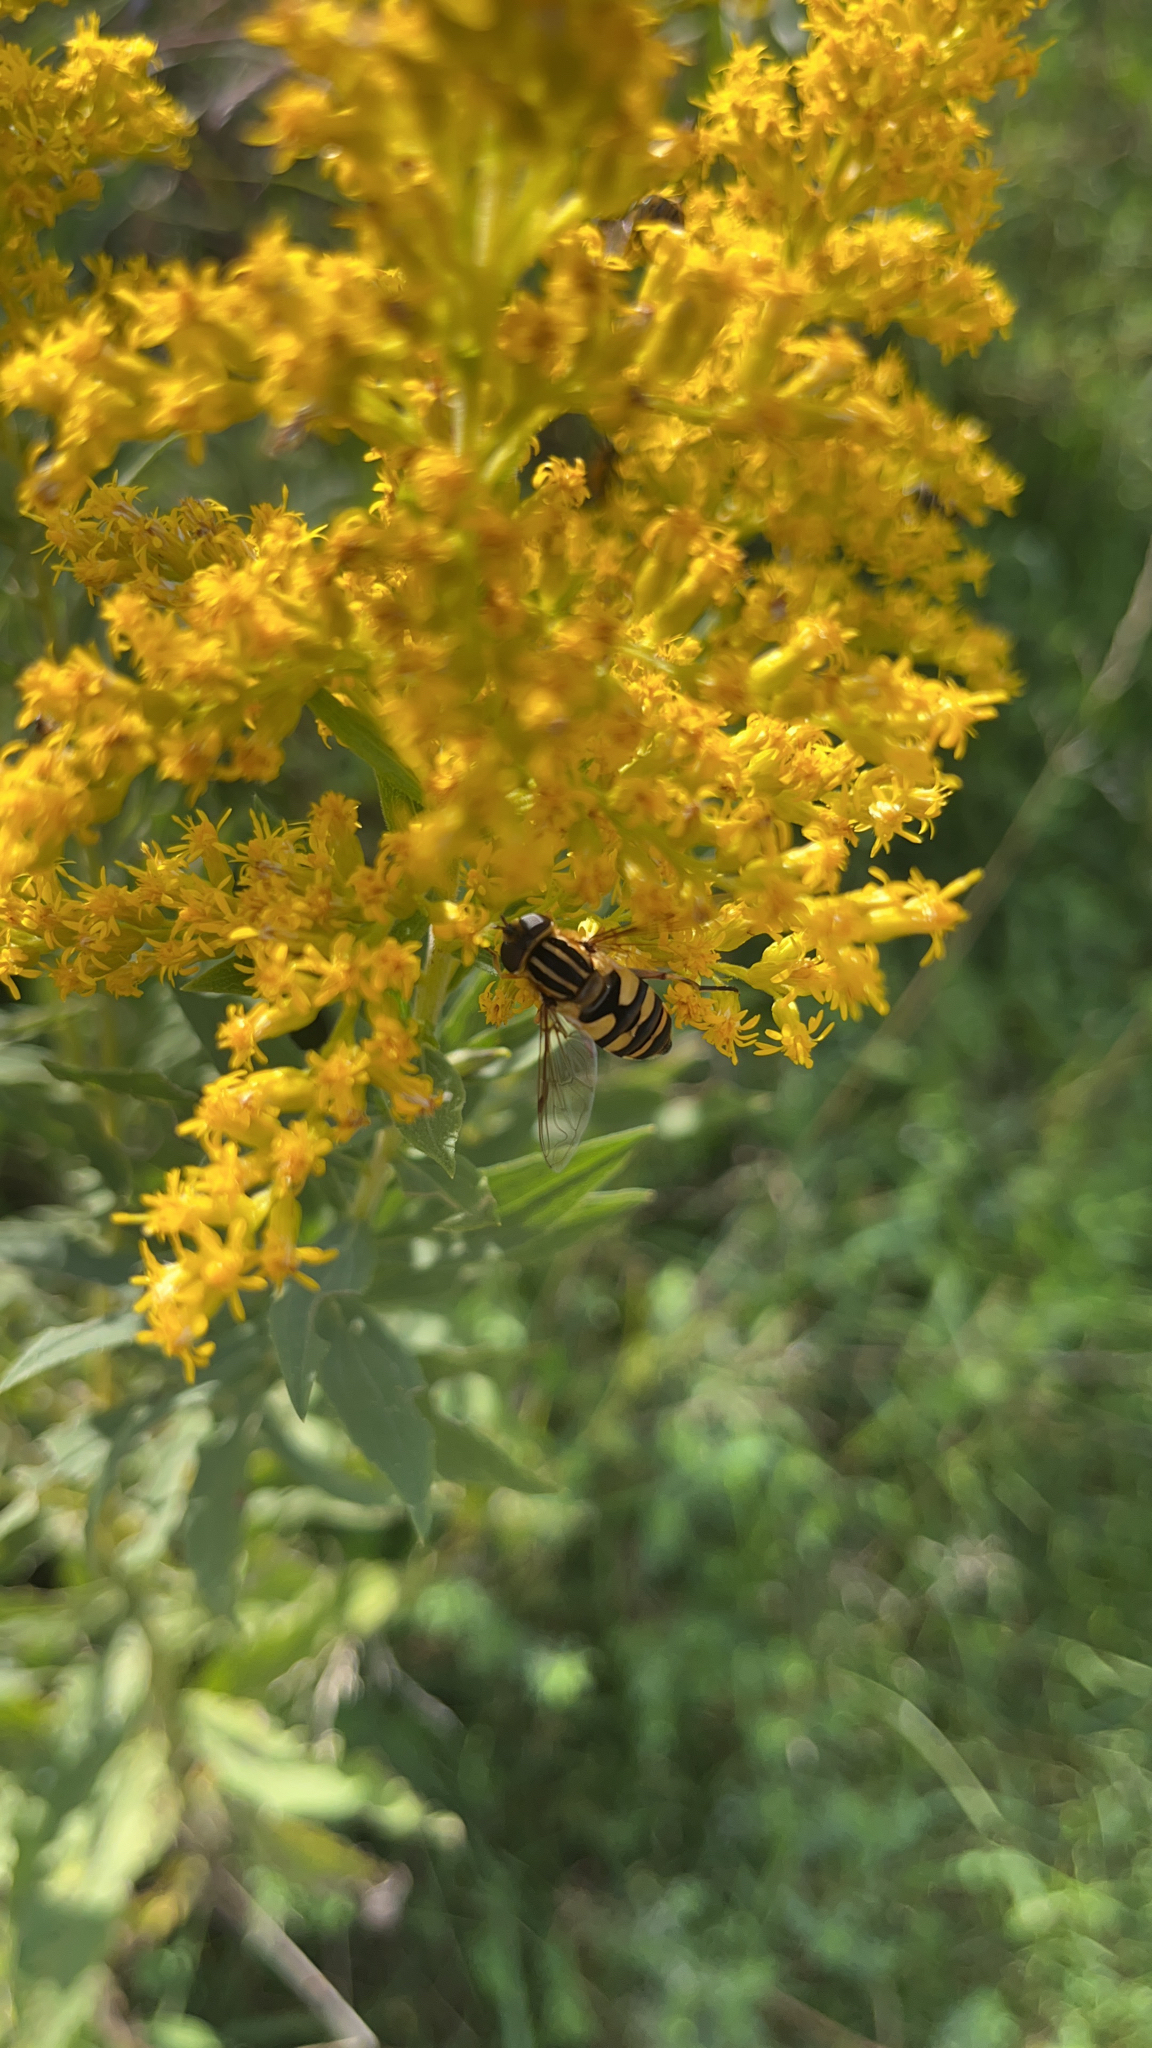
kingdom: Animalia
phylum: Arthropoda
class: Insecta
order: Diptera
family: Syrphidae
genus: Helophilus
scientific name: Helophilus fasciatus
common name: Narrow-headed marsh fly
